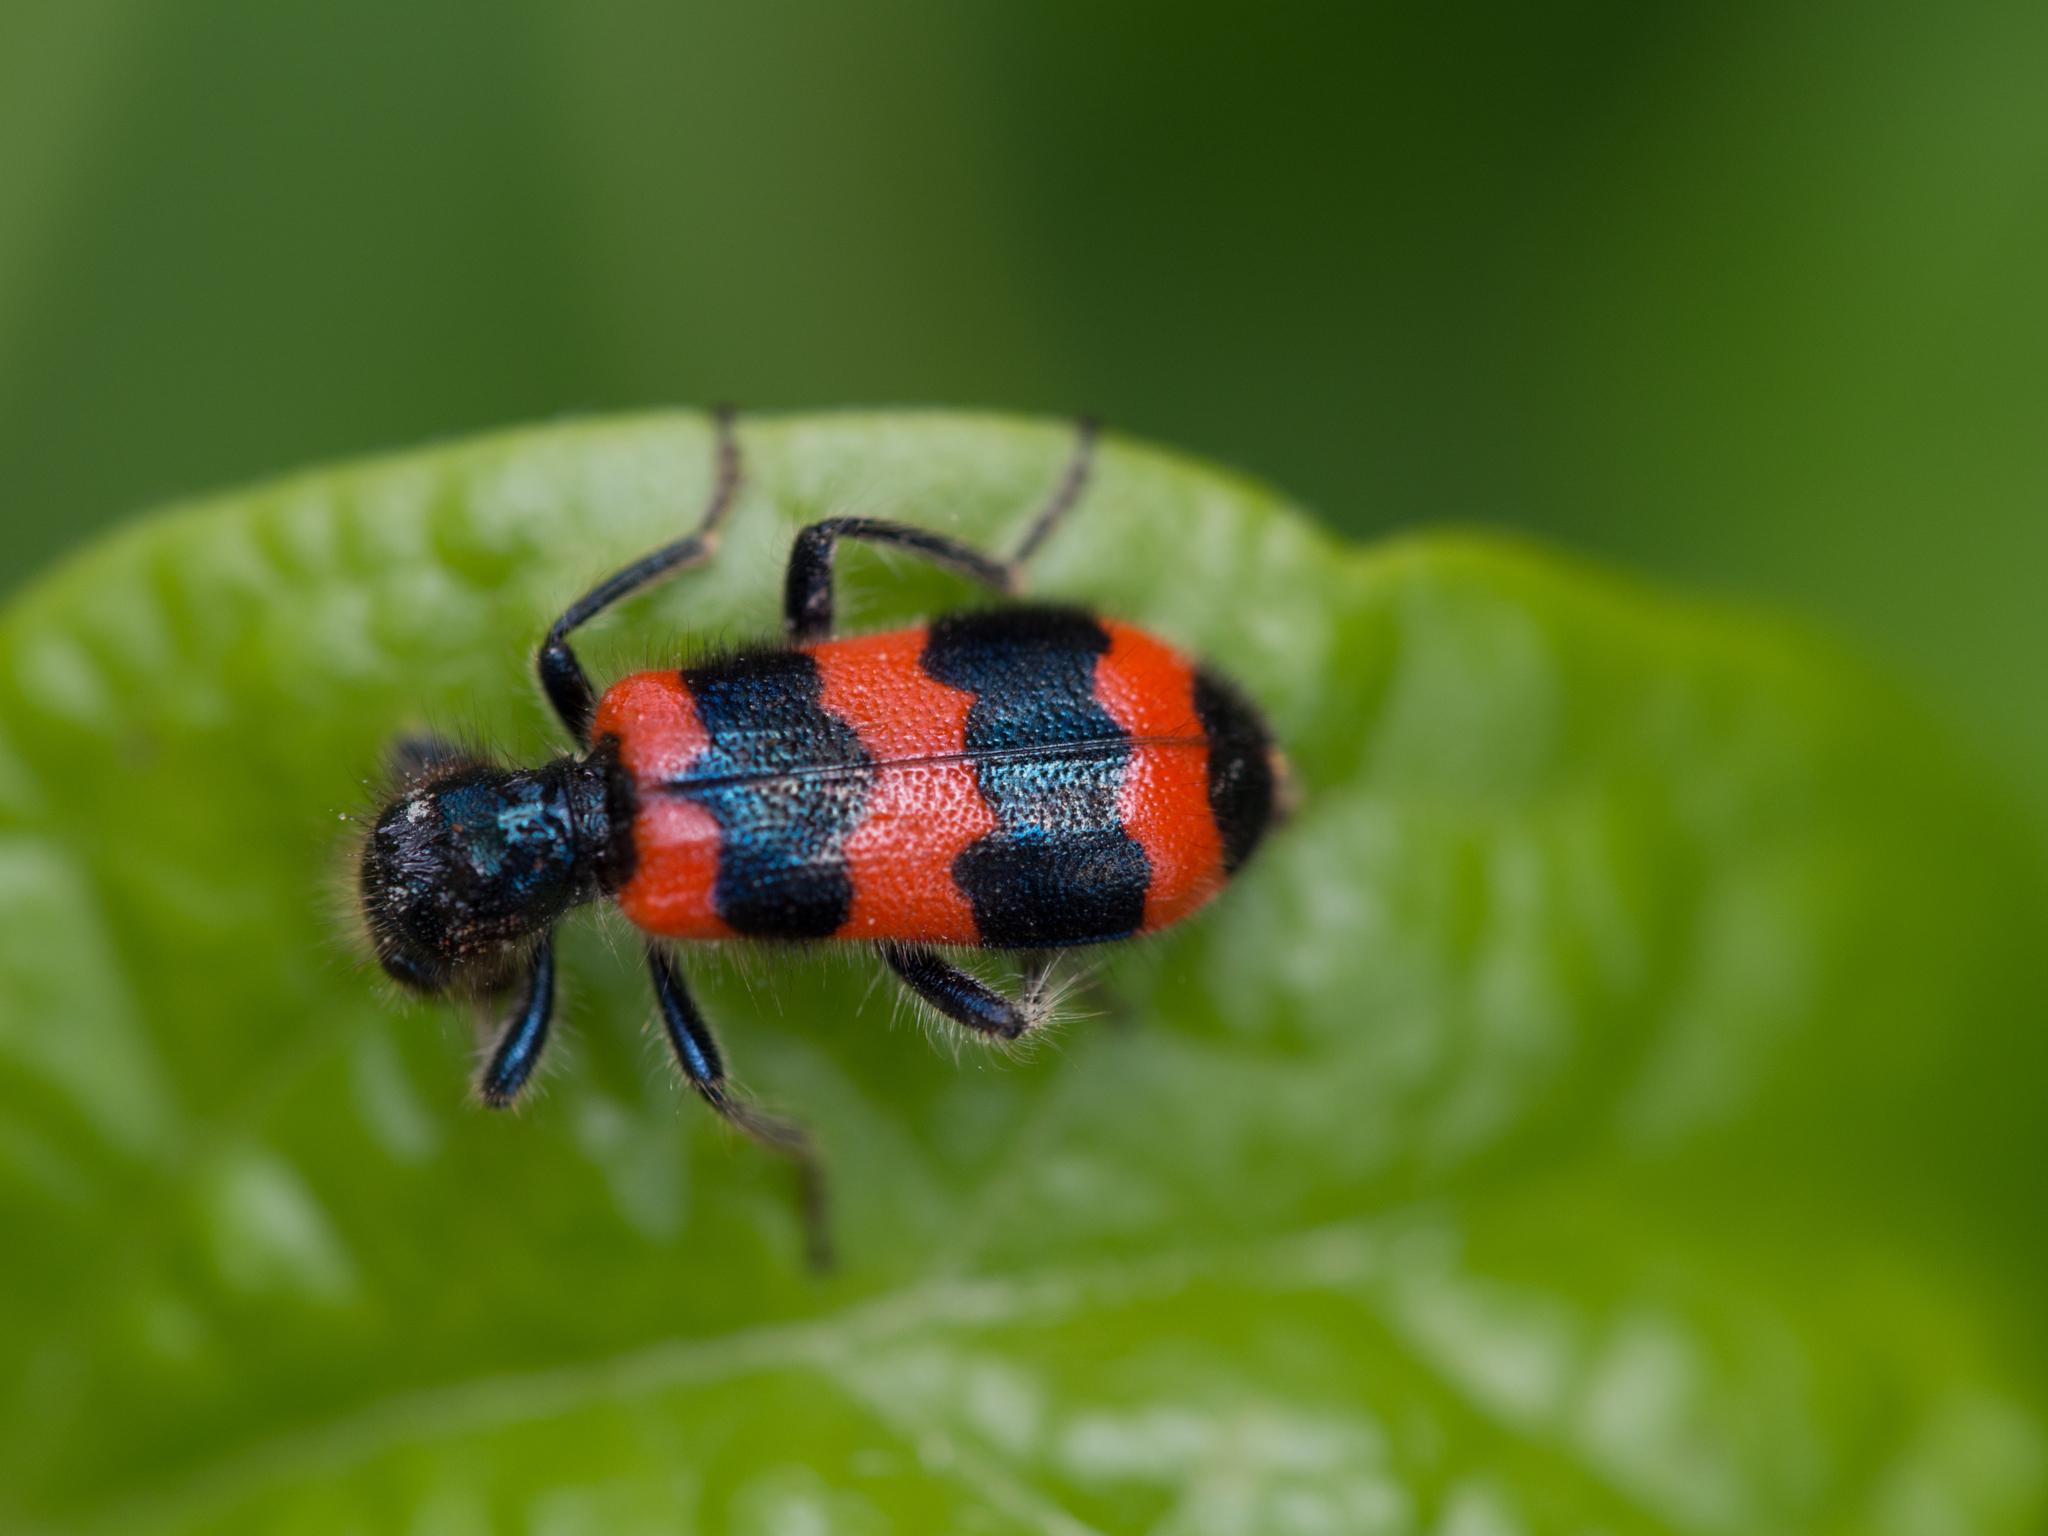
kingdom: Animalia
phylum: Arthropoda
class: Insecta
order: Coleoptera
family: Cleridae
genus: Trichodes
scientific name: Trichodes apiarius
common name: Bee-eating beetle
